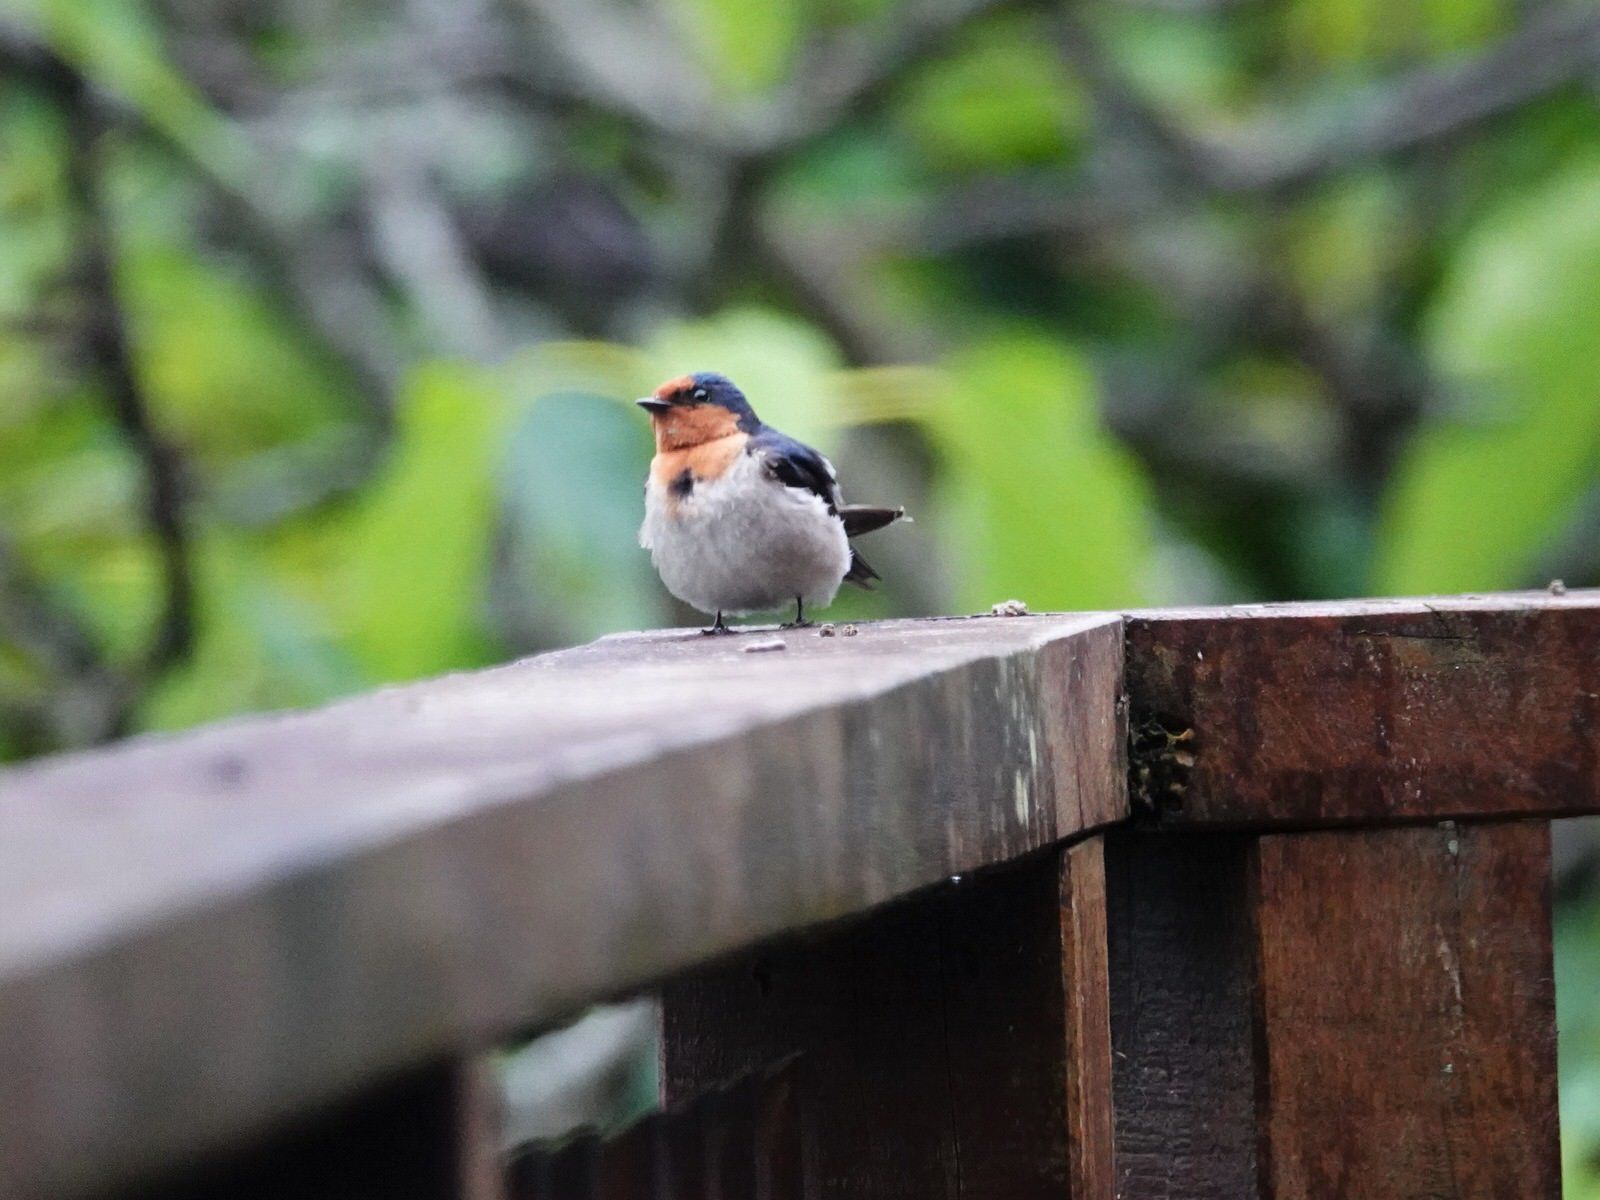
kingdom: Animalia
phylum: Chordata
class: Aves
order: Passeriformes
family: Hirundinidae
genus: Hirundo
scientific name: Hirundo neoxena
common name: Welcome swallow
